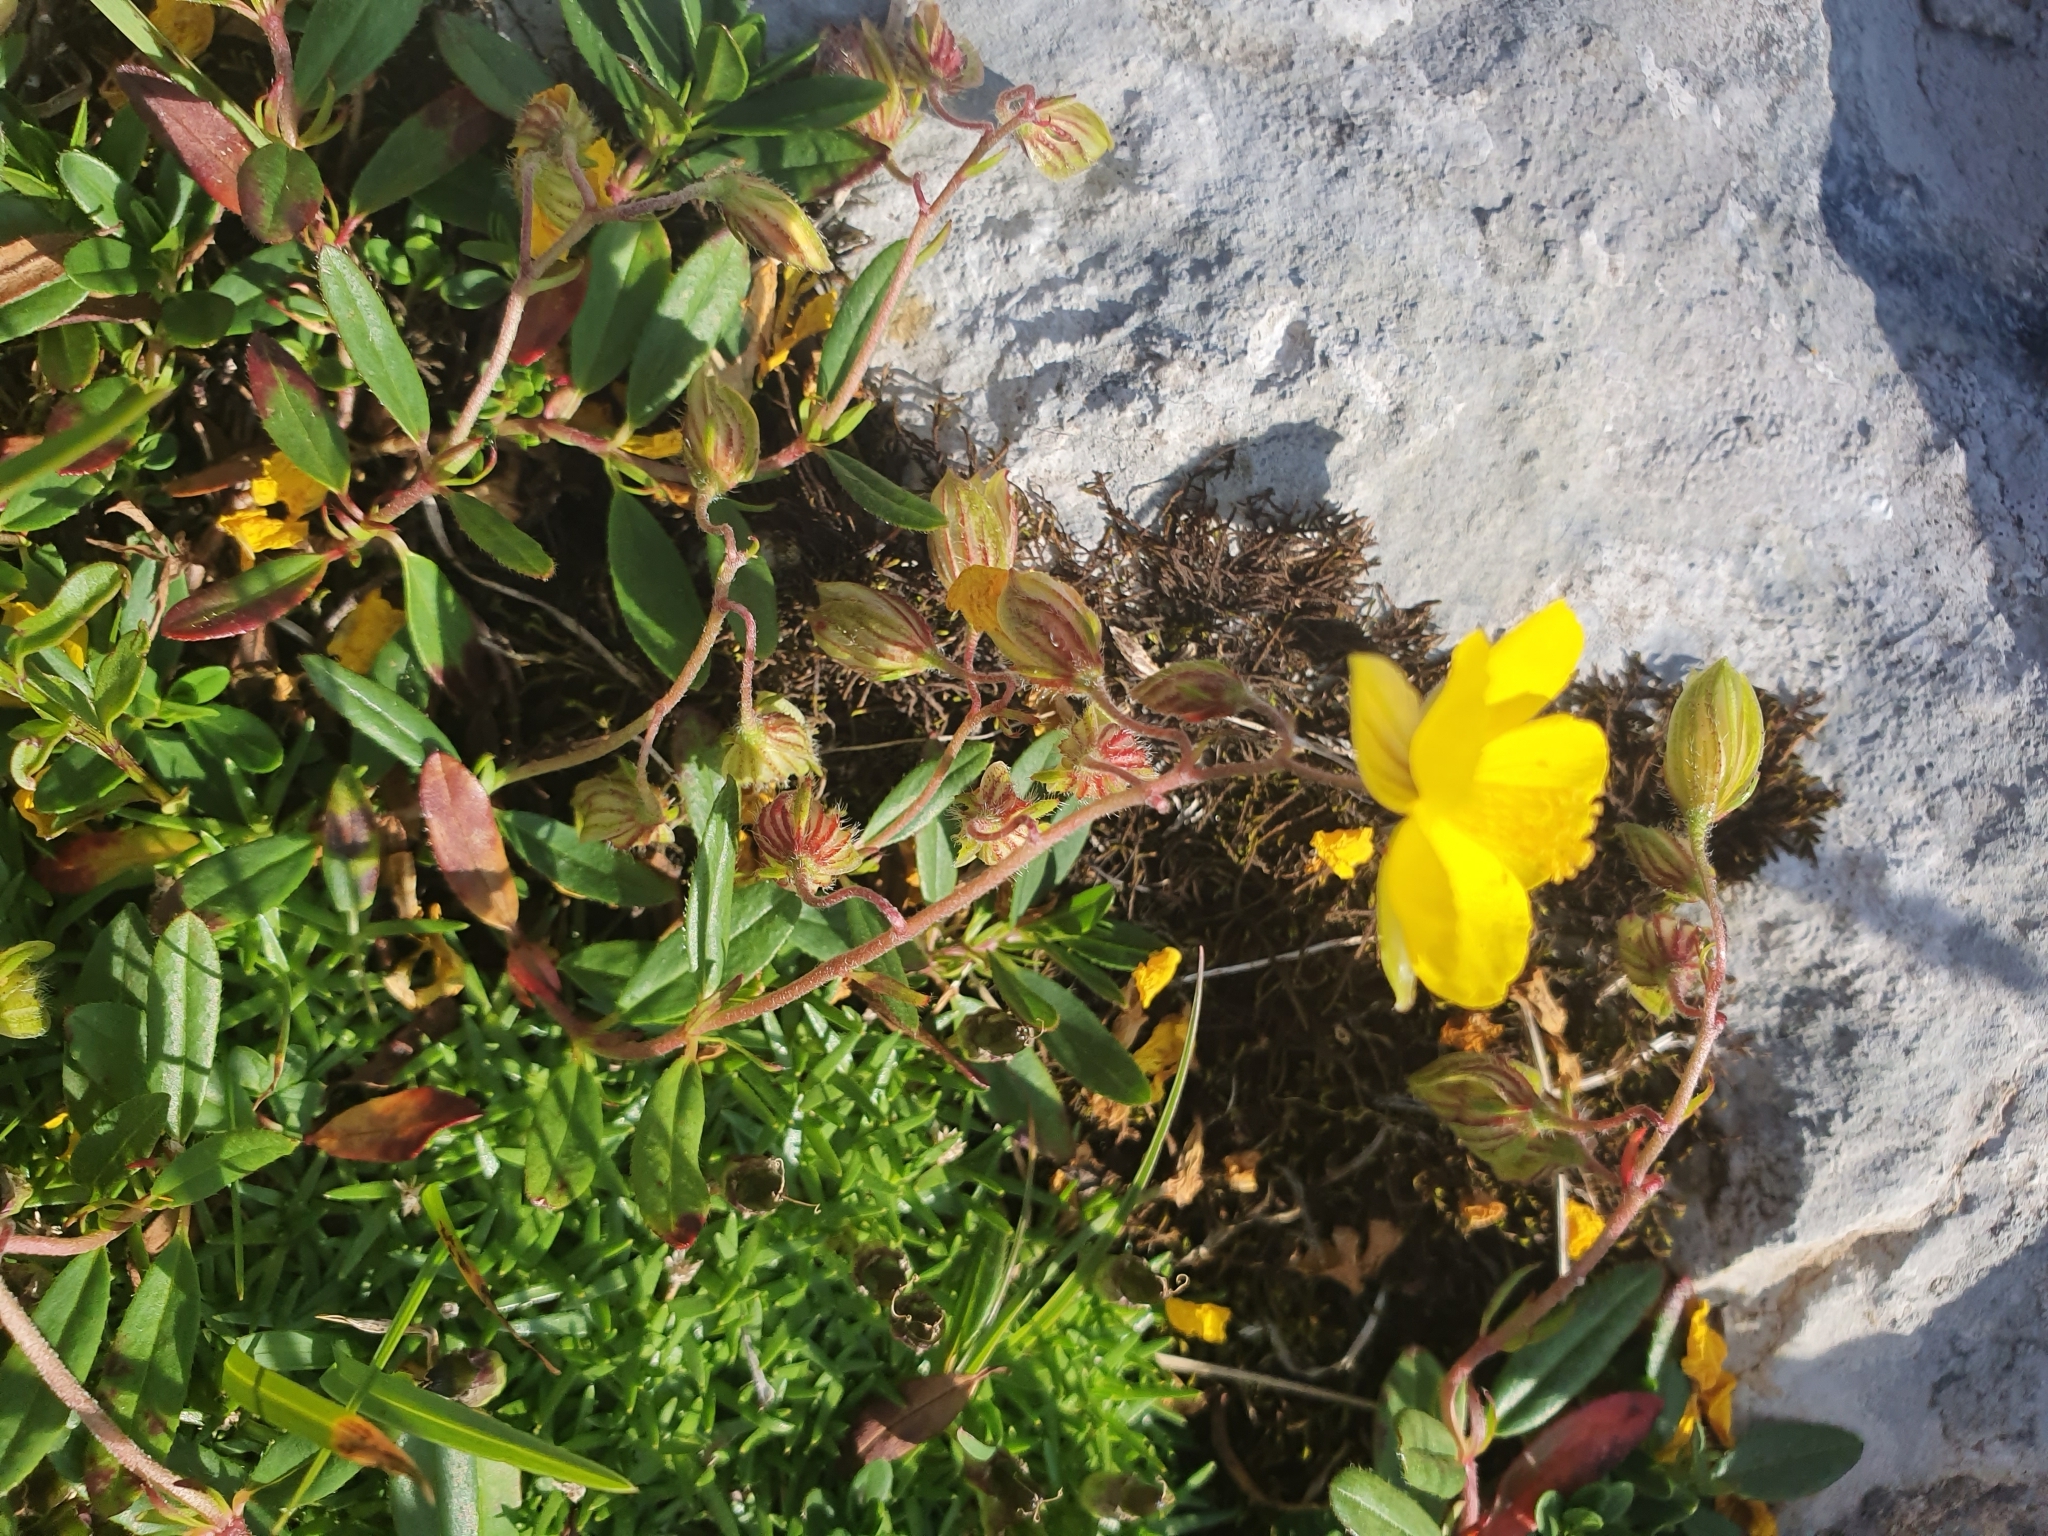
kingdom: Plantae
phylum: Tracheophyta
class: Magnoliopsida
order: Malvales
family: Cistaceae
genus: Helianthemum
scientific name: Helianthemum nummularium
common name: Common rock-rose
